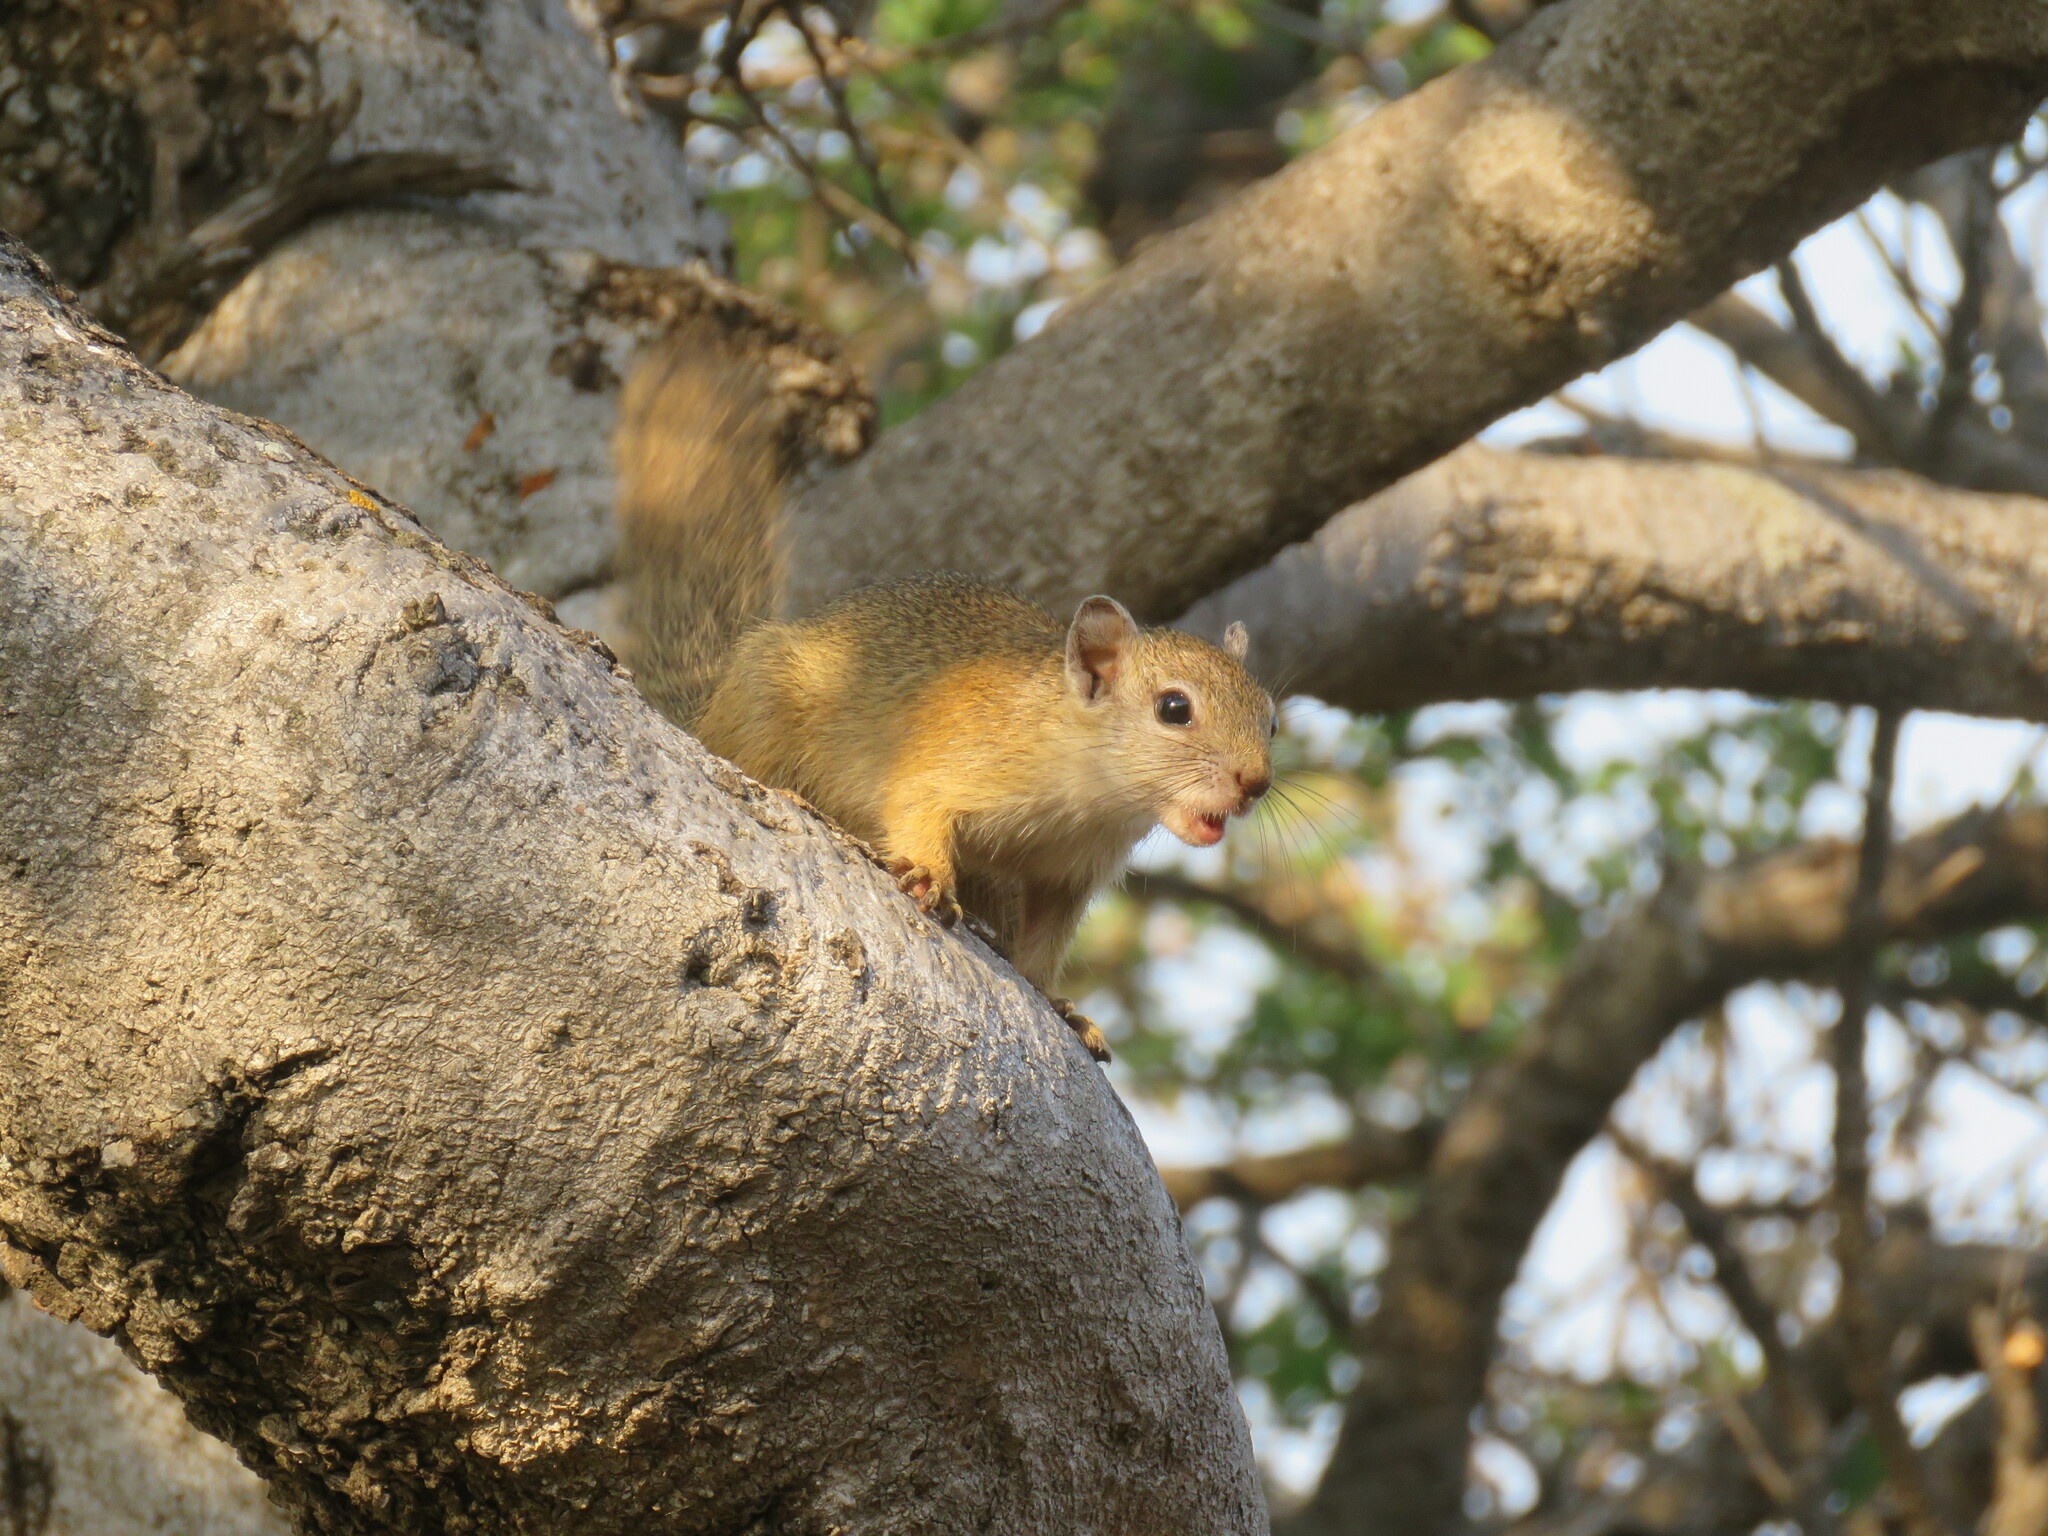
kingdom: Animalia
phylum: Chordata
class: Mammalia
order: Rodentia
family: Sciuridae
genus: Paraxerus
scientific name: Paraxerus cepapi
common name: Smith's bush squirrel
